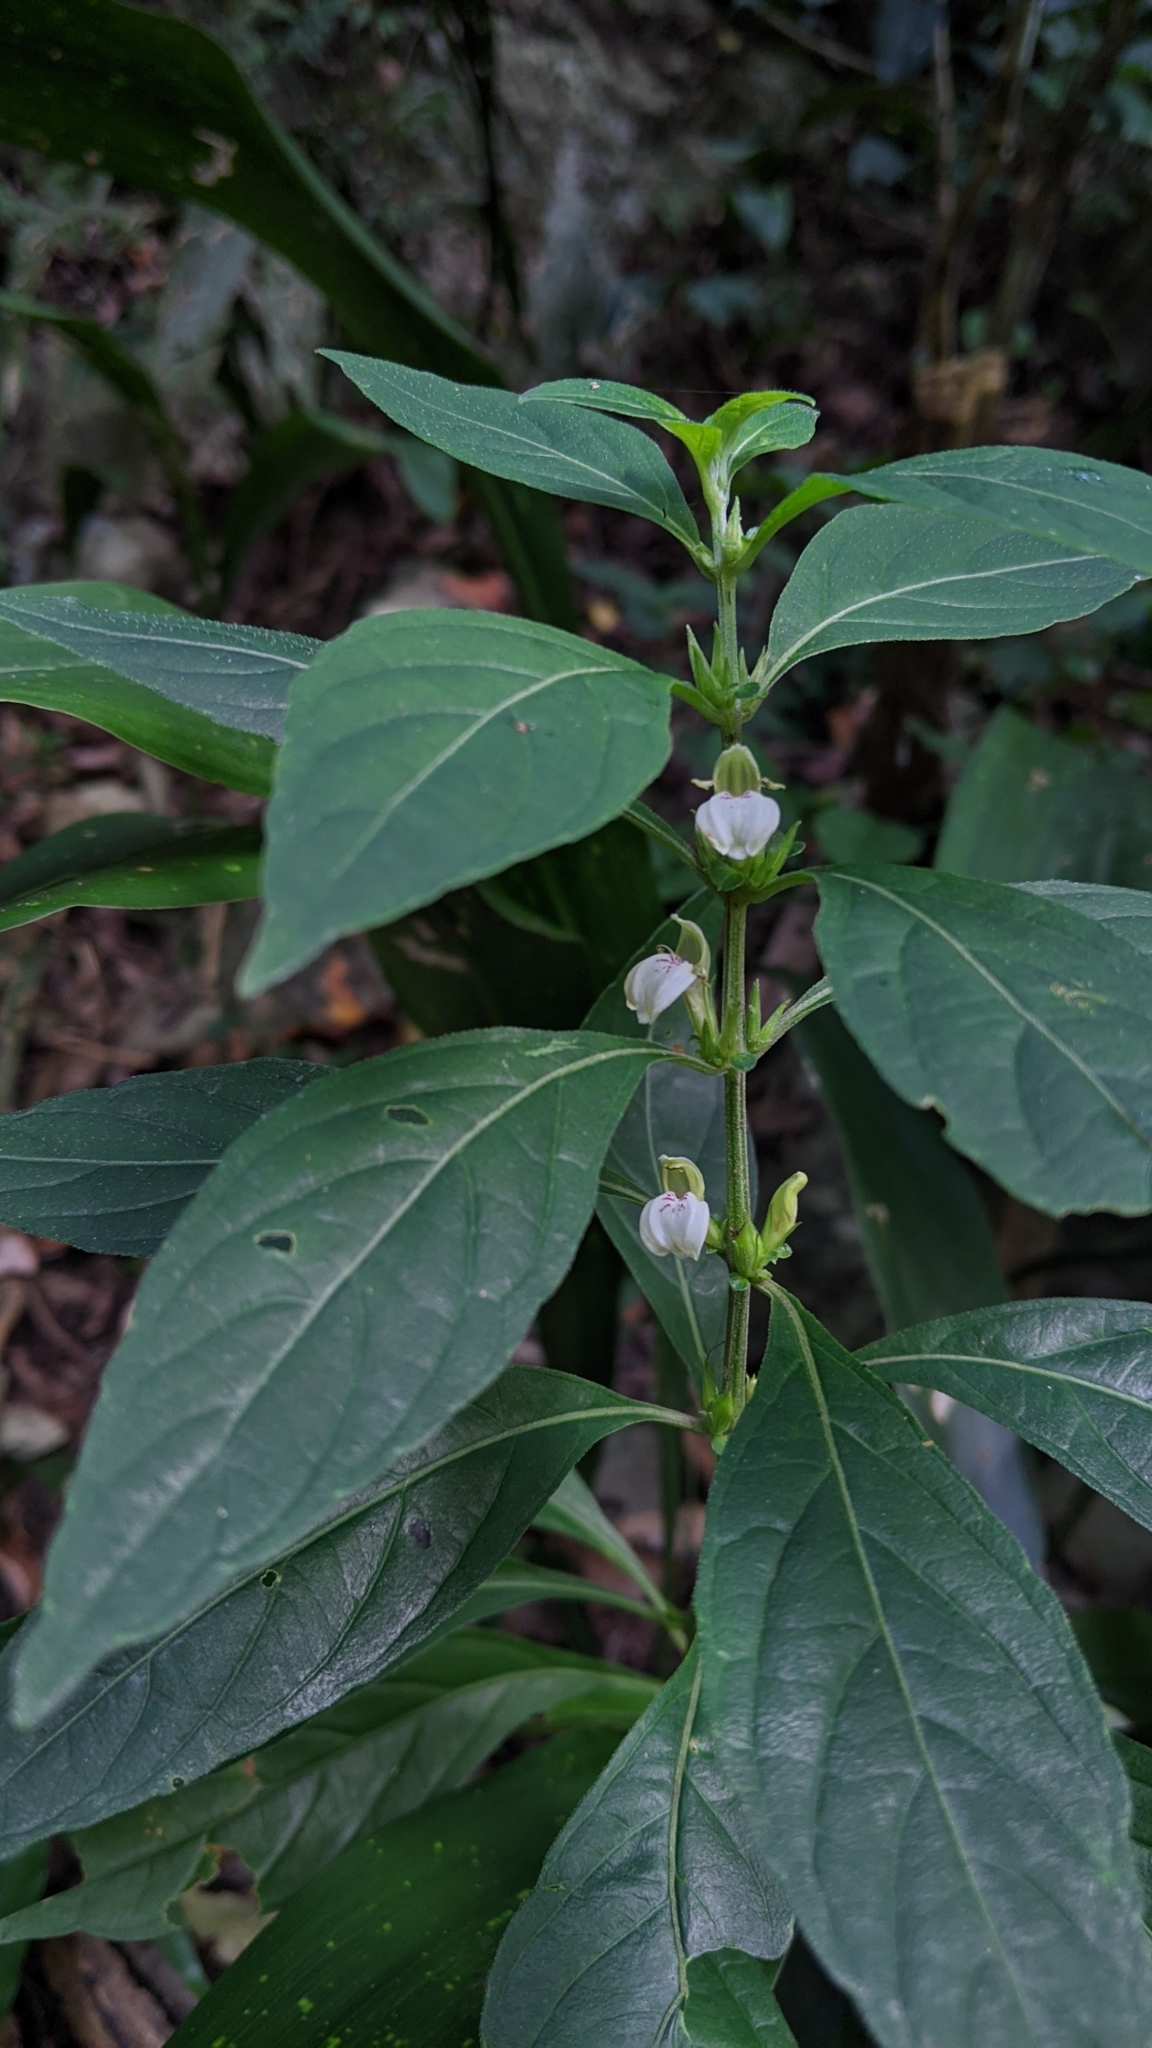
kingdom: Plantae
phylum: Tracheophyta
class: Magnoliopsida
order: Lamiales
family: Acanthaceae
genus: Justicia
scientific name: Justicia quadrifaria
